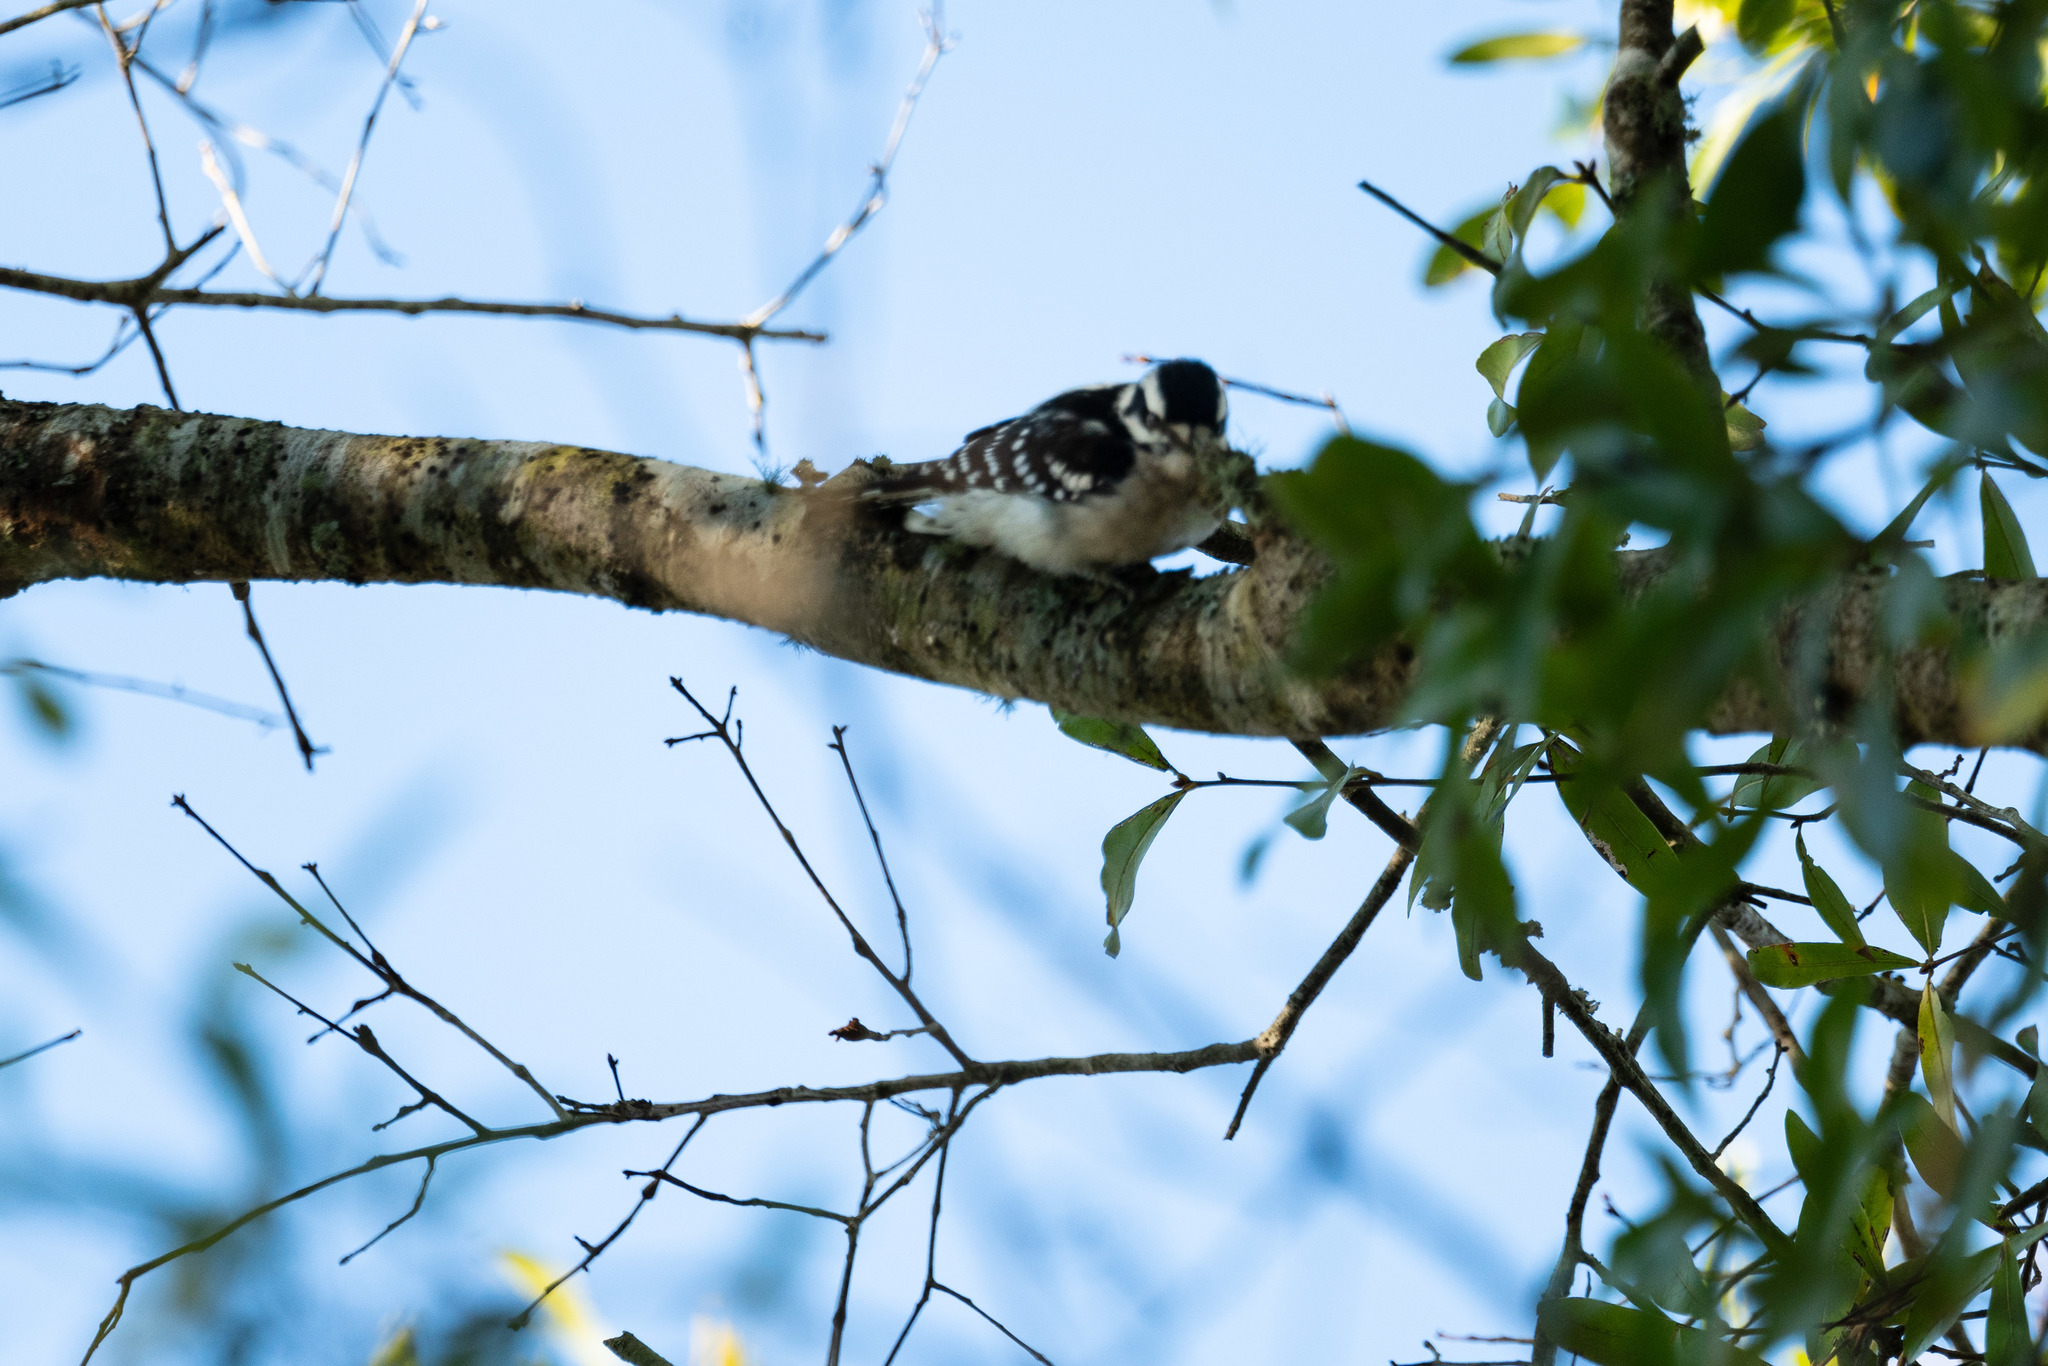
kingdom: Animalia
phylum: Chordata
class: Aves
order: Piciformes
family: Picidae
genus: Dryobates
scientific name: Dryobates pubescens
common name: Downy woodpecker
